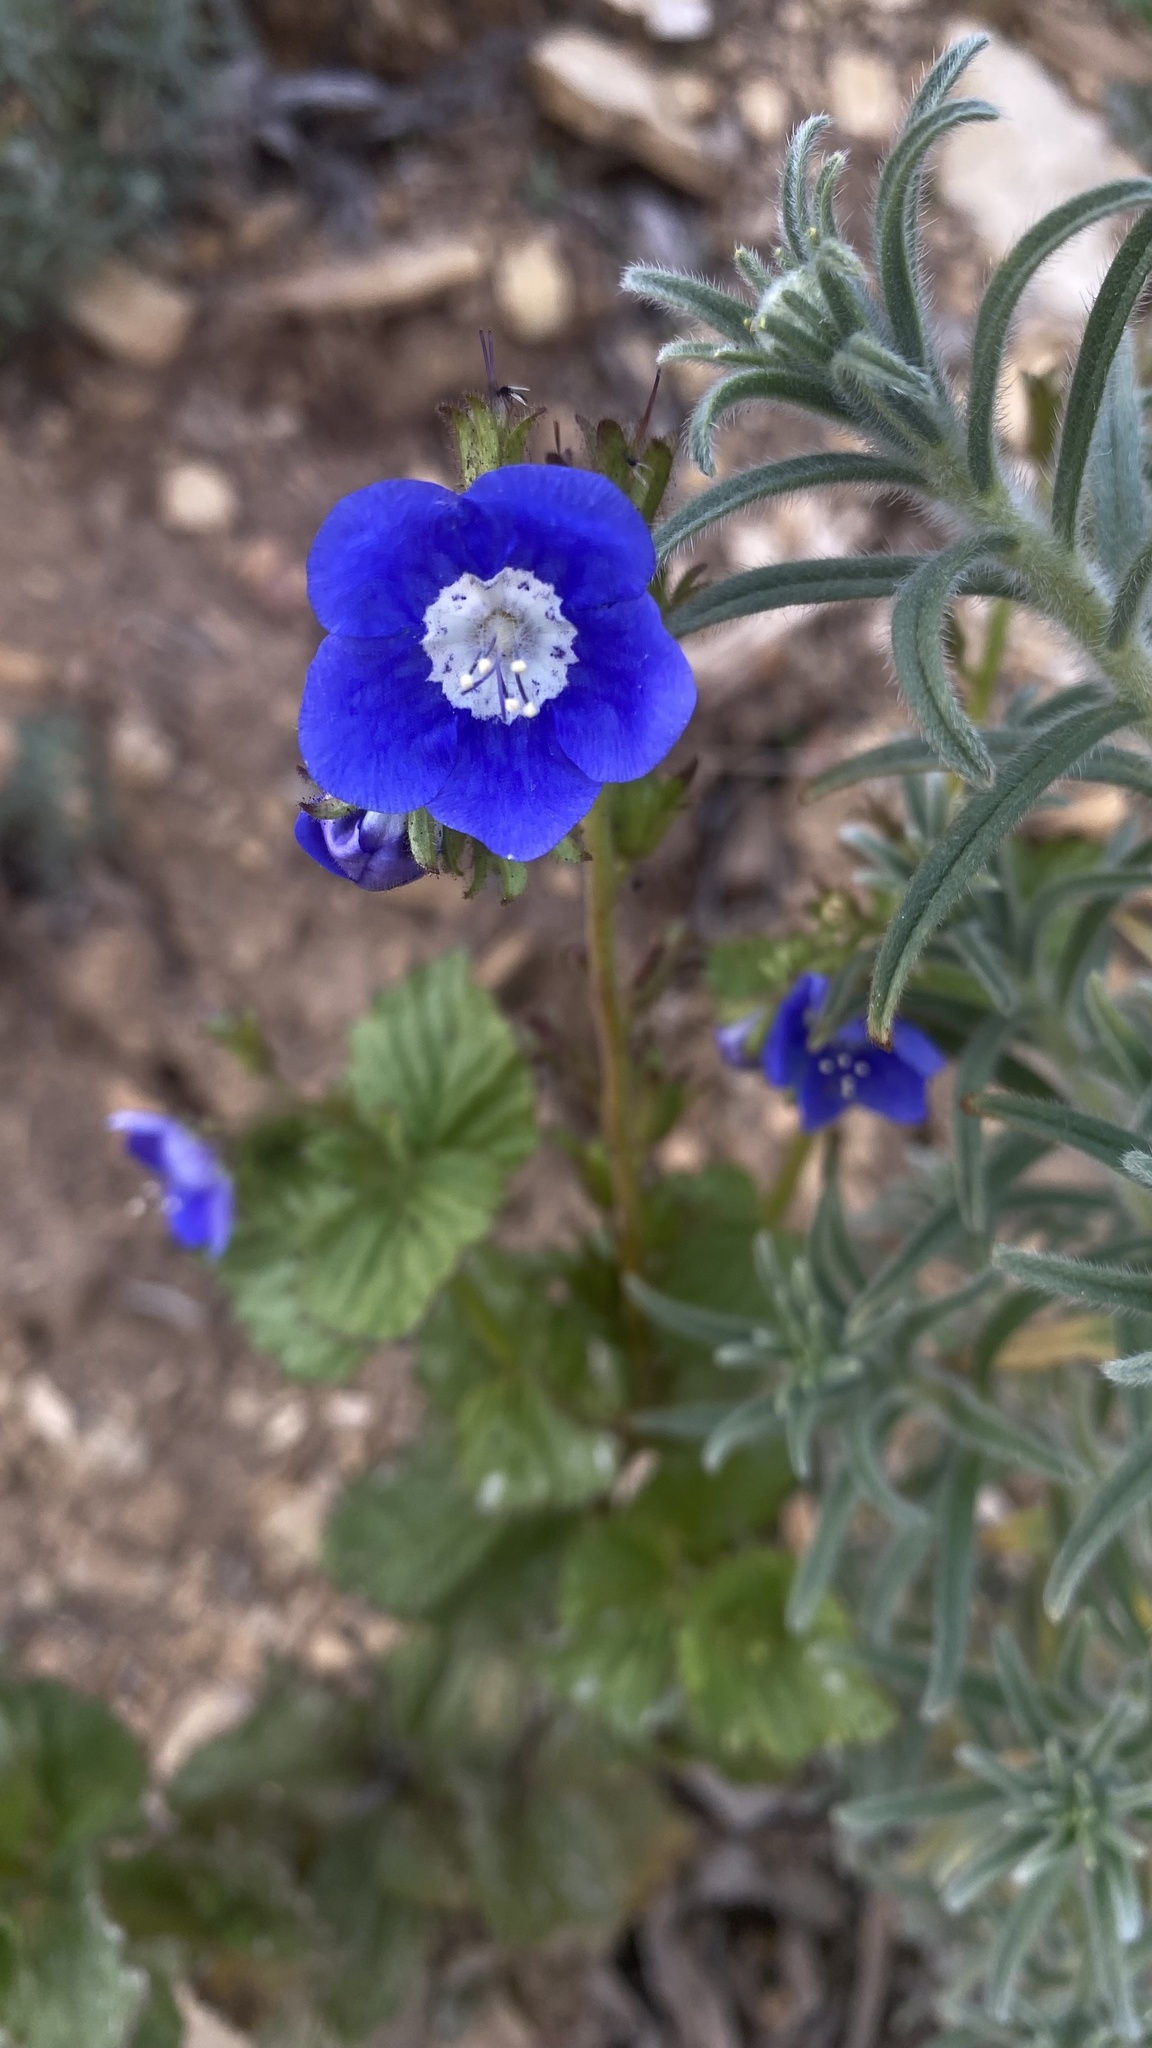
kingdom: Plantae
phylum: Tracheophyta
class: Magnoliopsida
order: Boraginales
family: Hydrophyllaceae
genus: Phacelia
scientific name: Phacelia viscida
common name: Sticky phacelia
